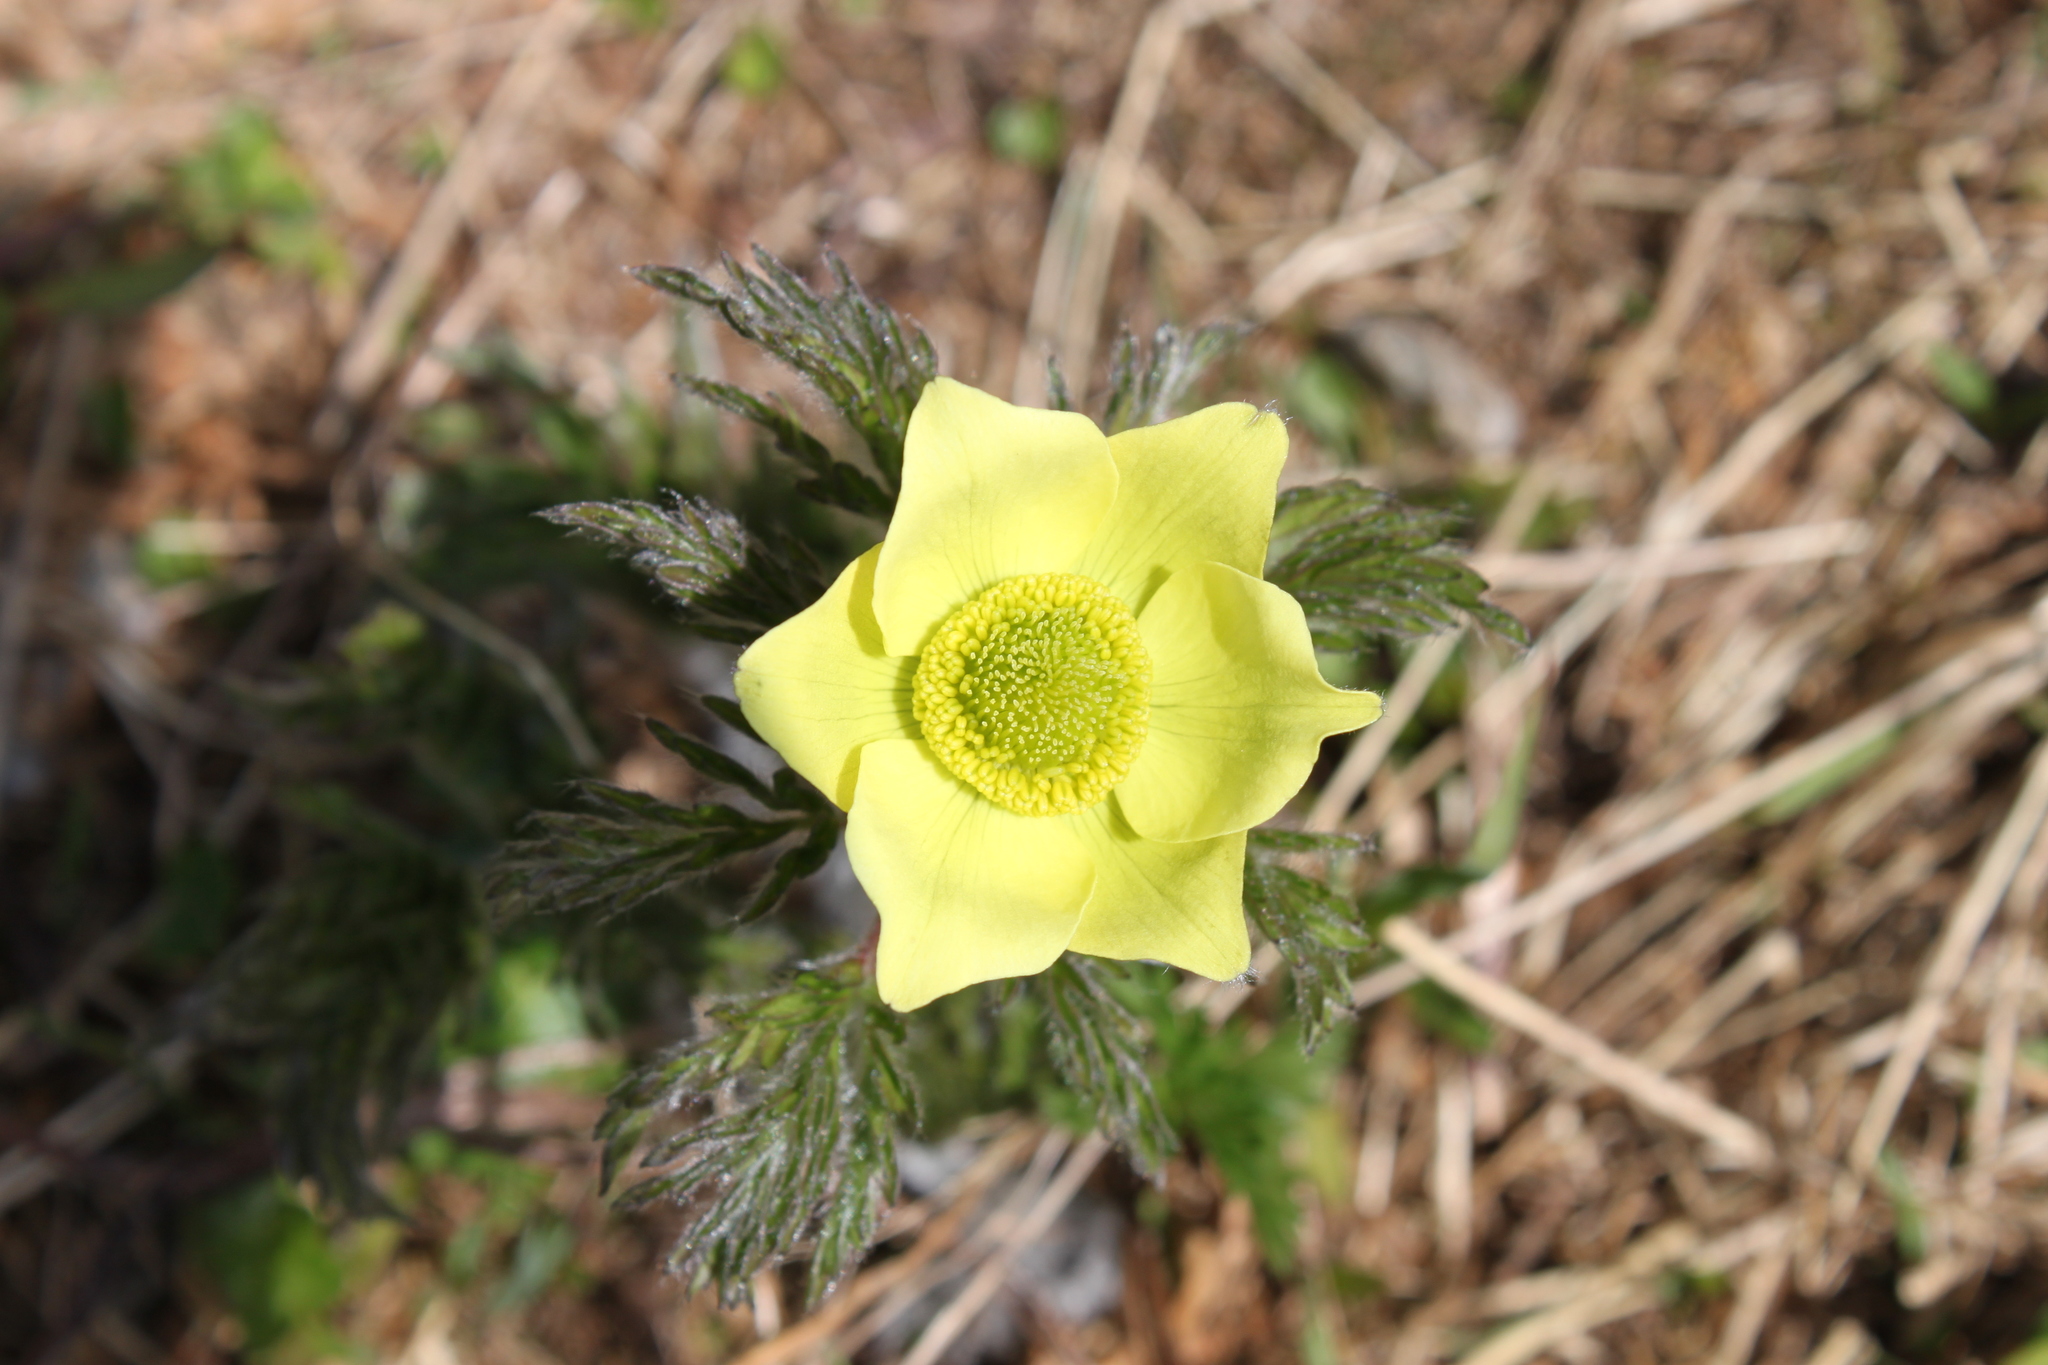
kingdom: Plantae
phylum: Tracheophyta
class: Magnoliopsida
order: Ranunculales
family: Ranunculaceae
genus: Pulsatilla
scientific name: Pulsatilla alpina
